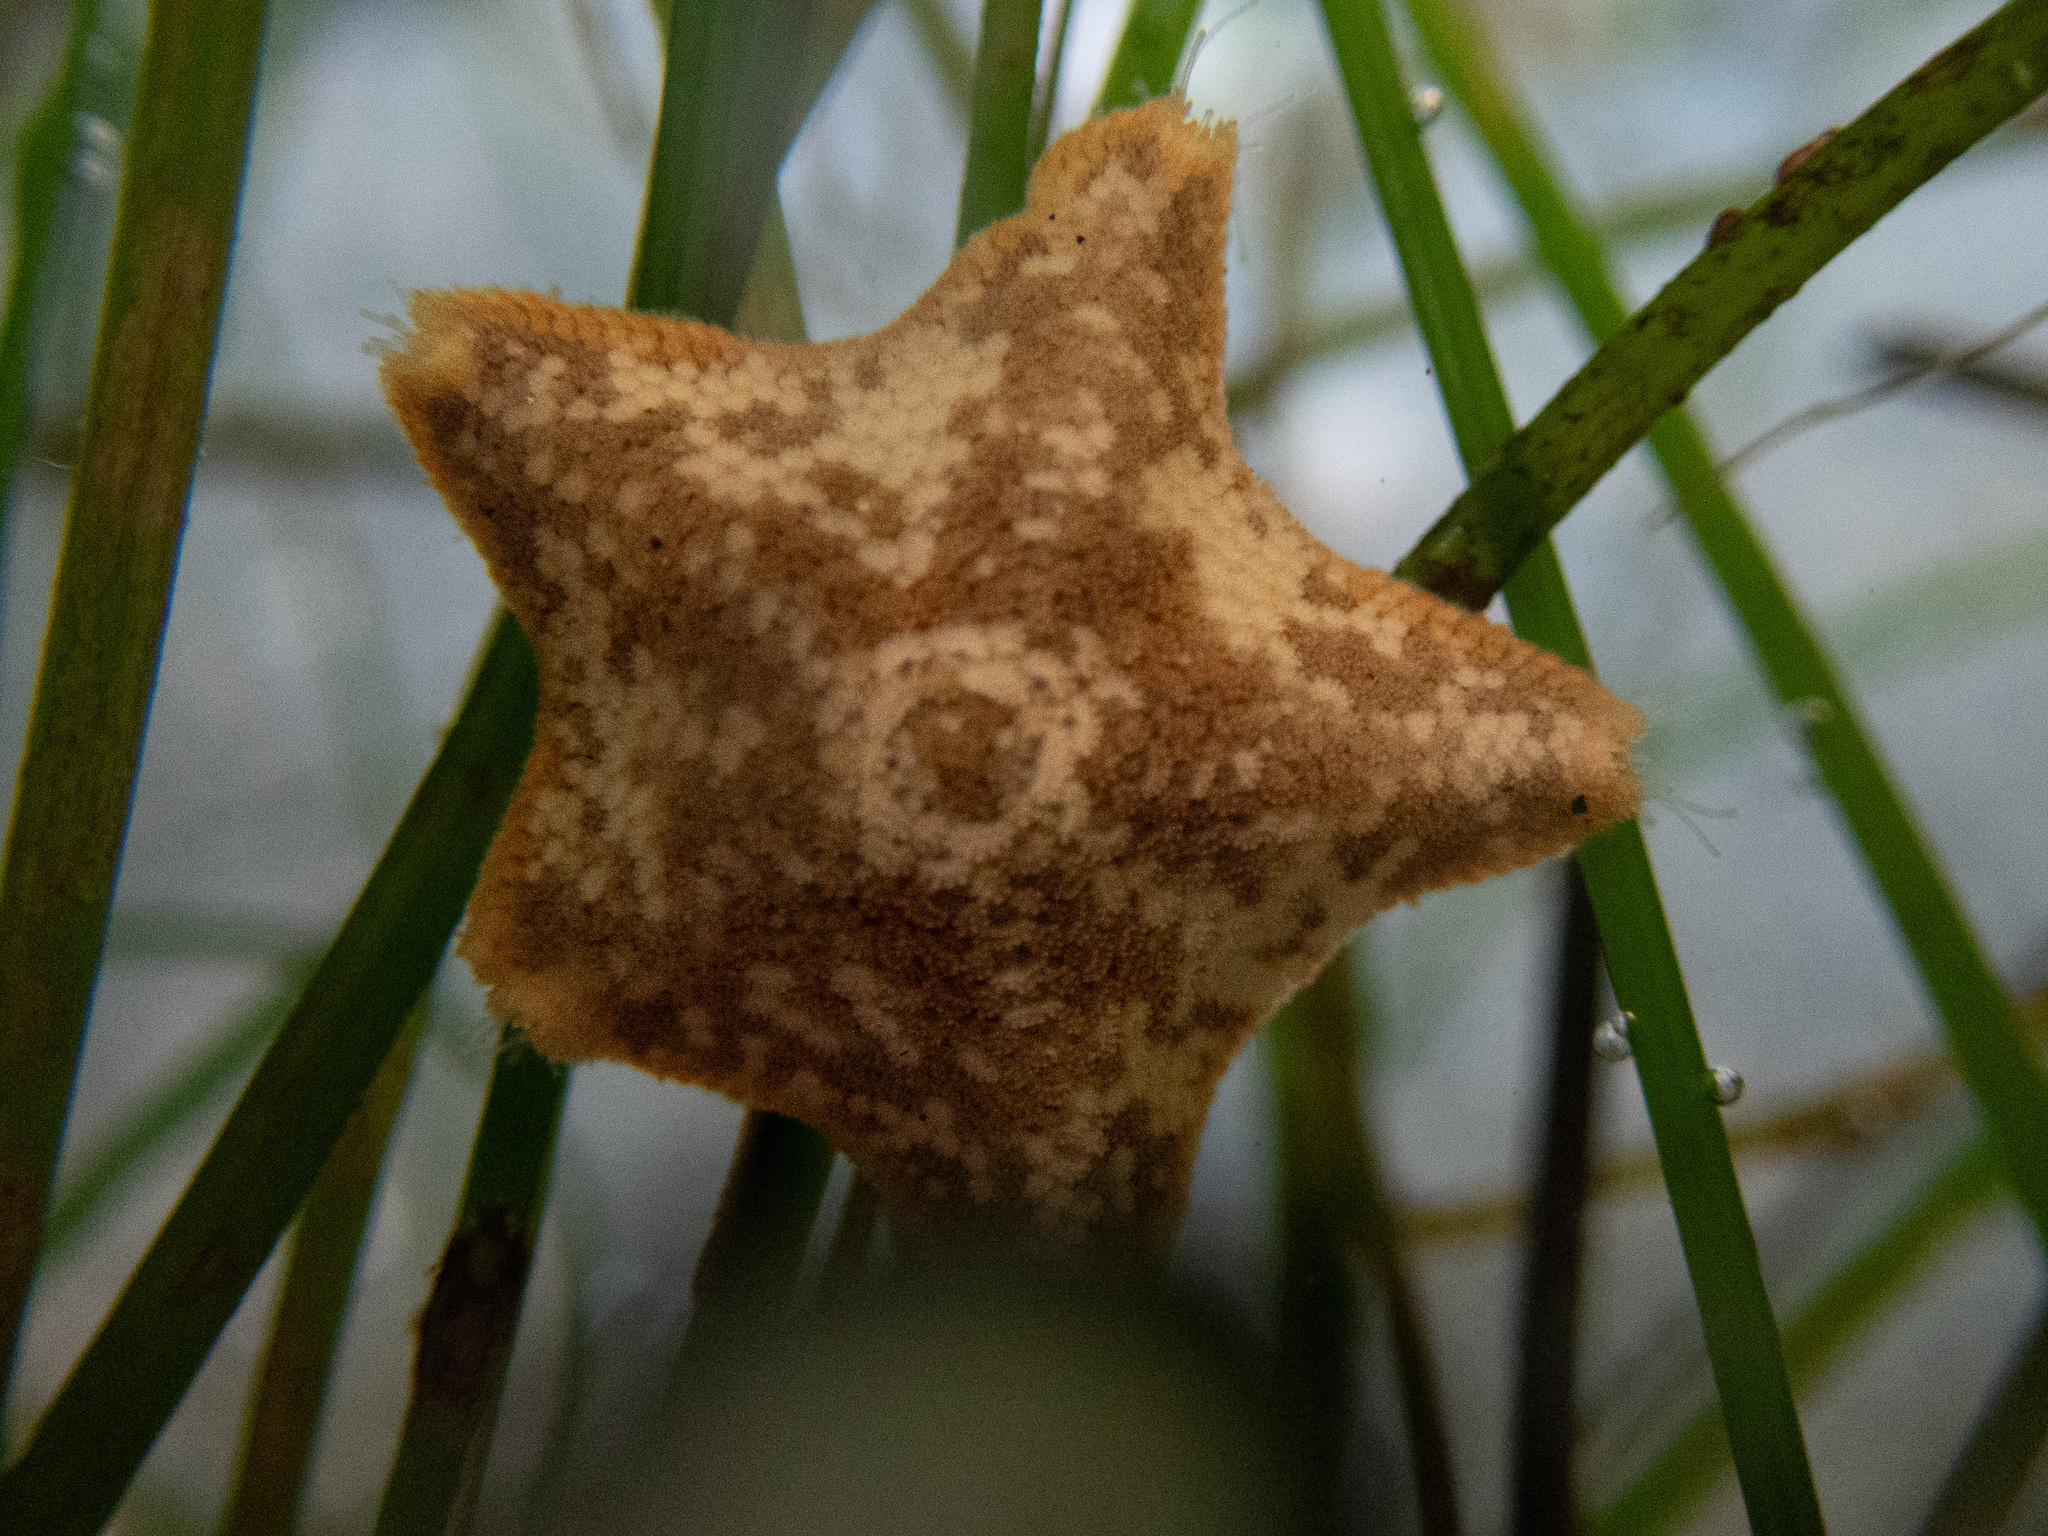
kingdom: Animalia
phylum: Echinodermata
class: Asteroidea
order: Valvatida
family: Asterinidae
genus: Patiria
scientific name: Patiria miniata
